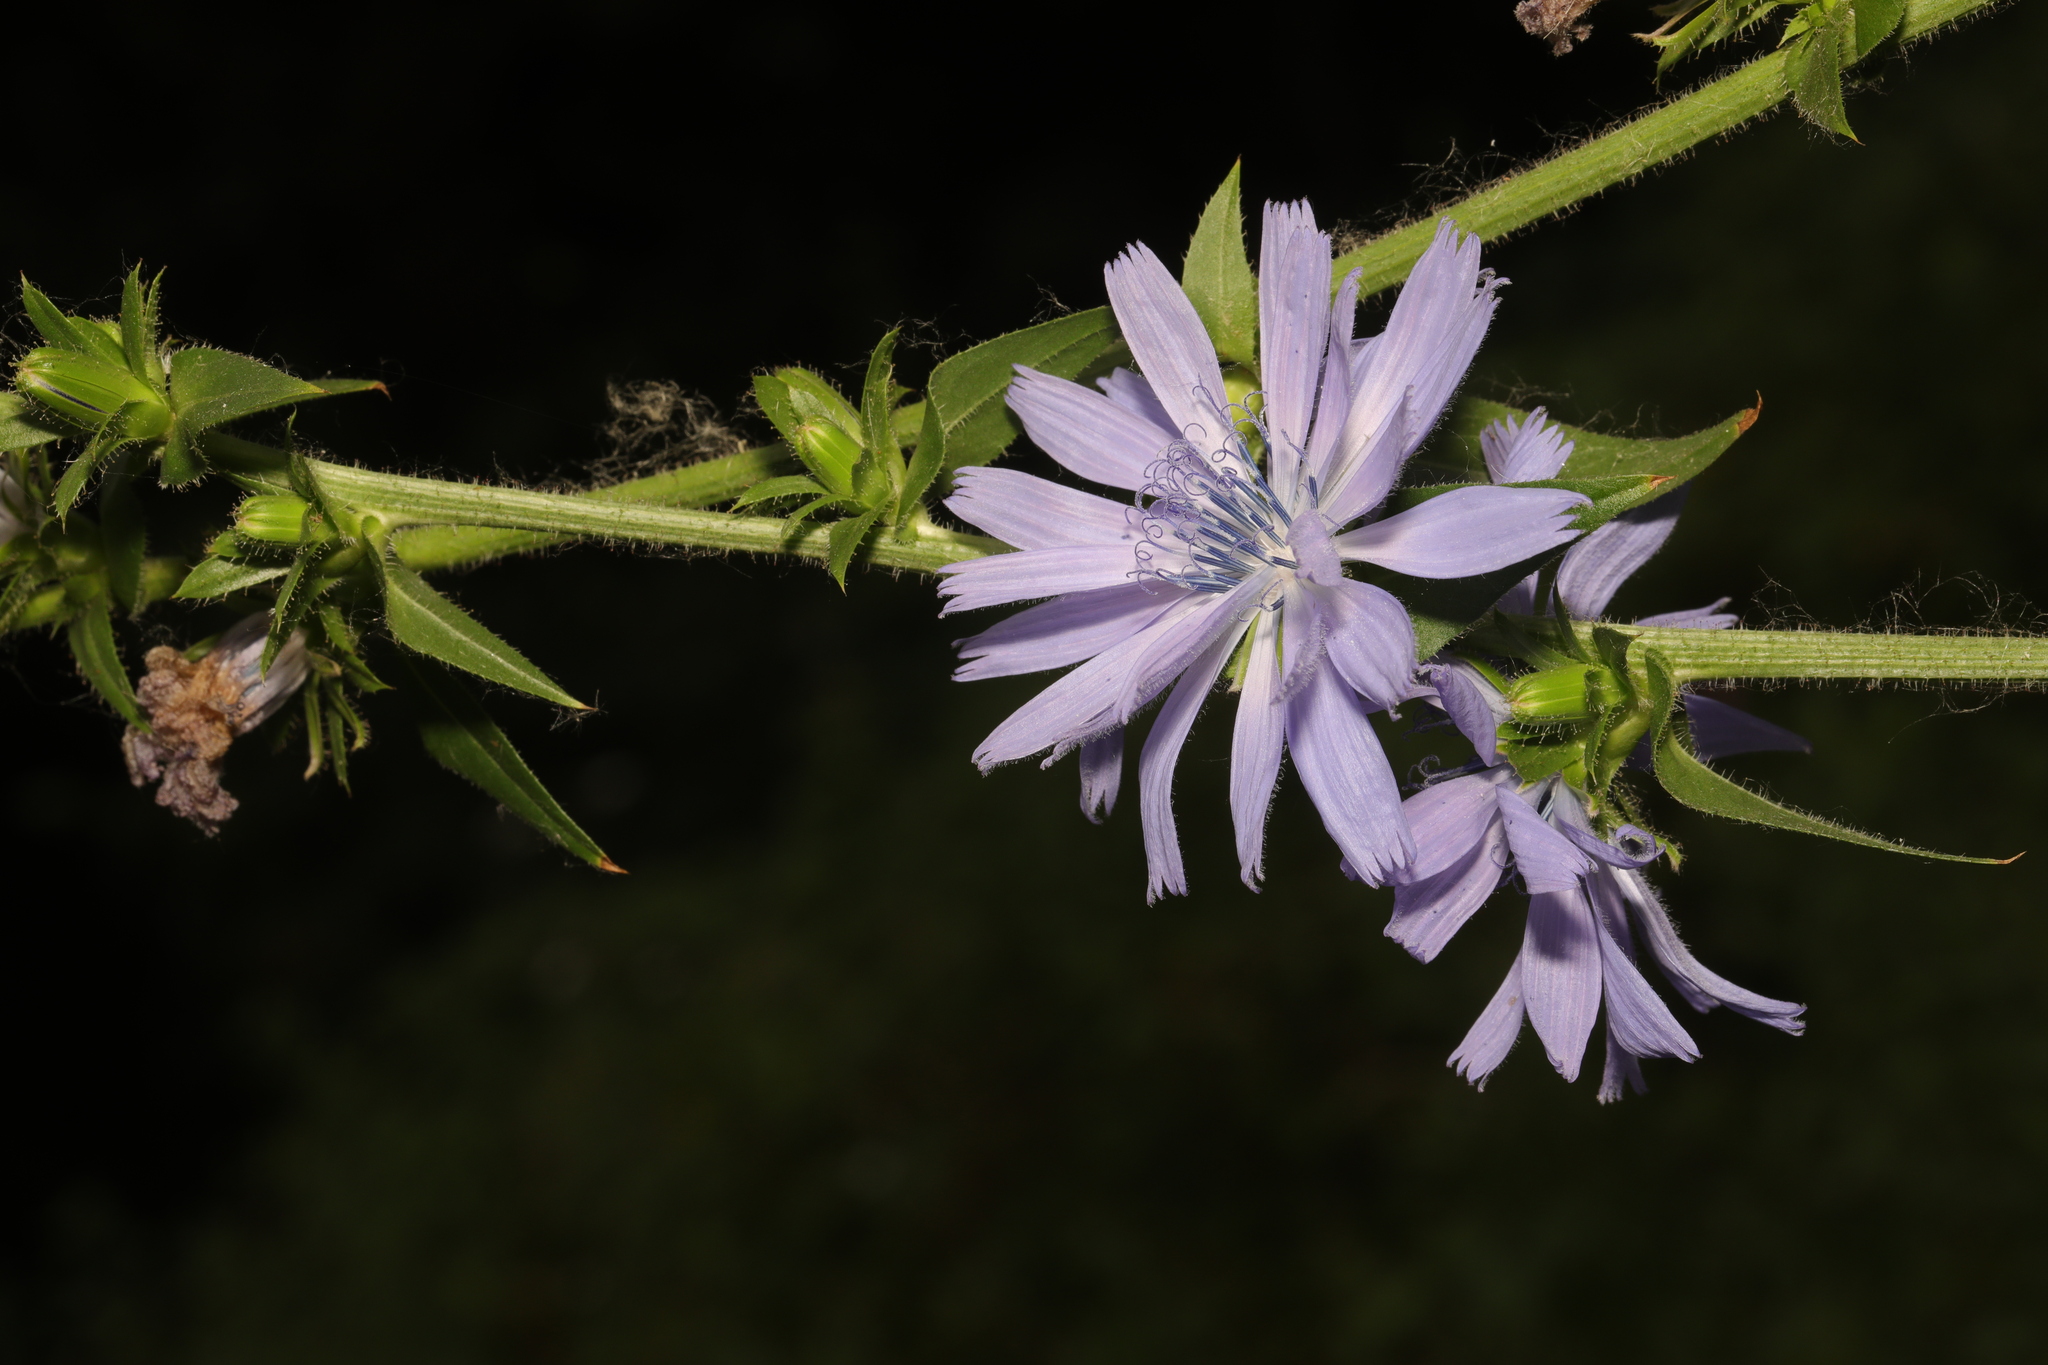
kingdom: Plantae
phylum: Tracheophyta
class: Magnoliopsida
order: Asterales
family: Asteraceae
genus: Cichorium
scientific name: Cichorium intybus
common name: Chicory
